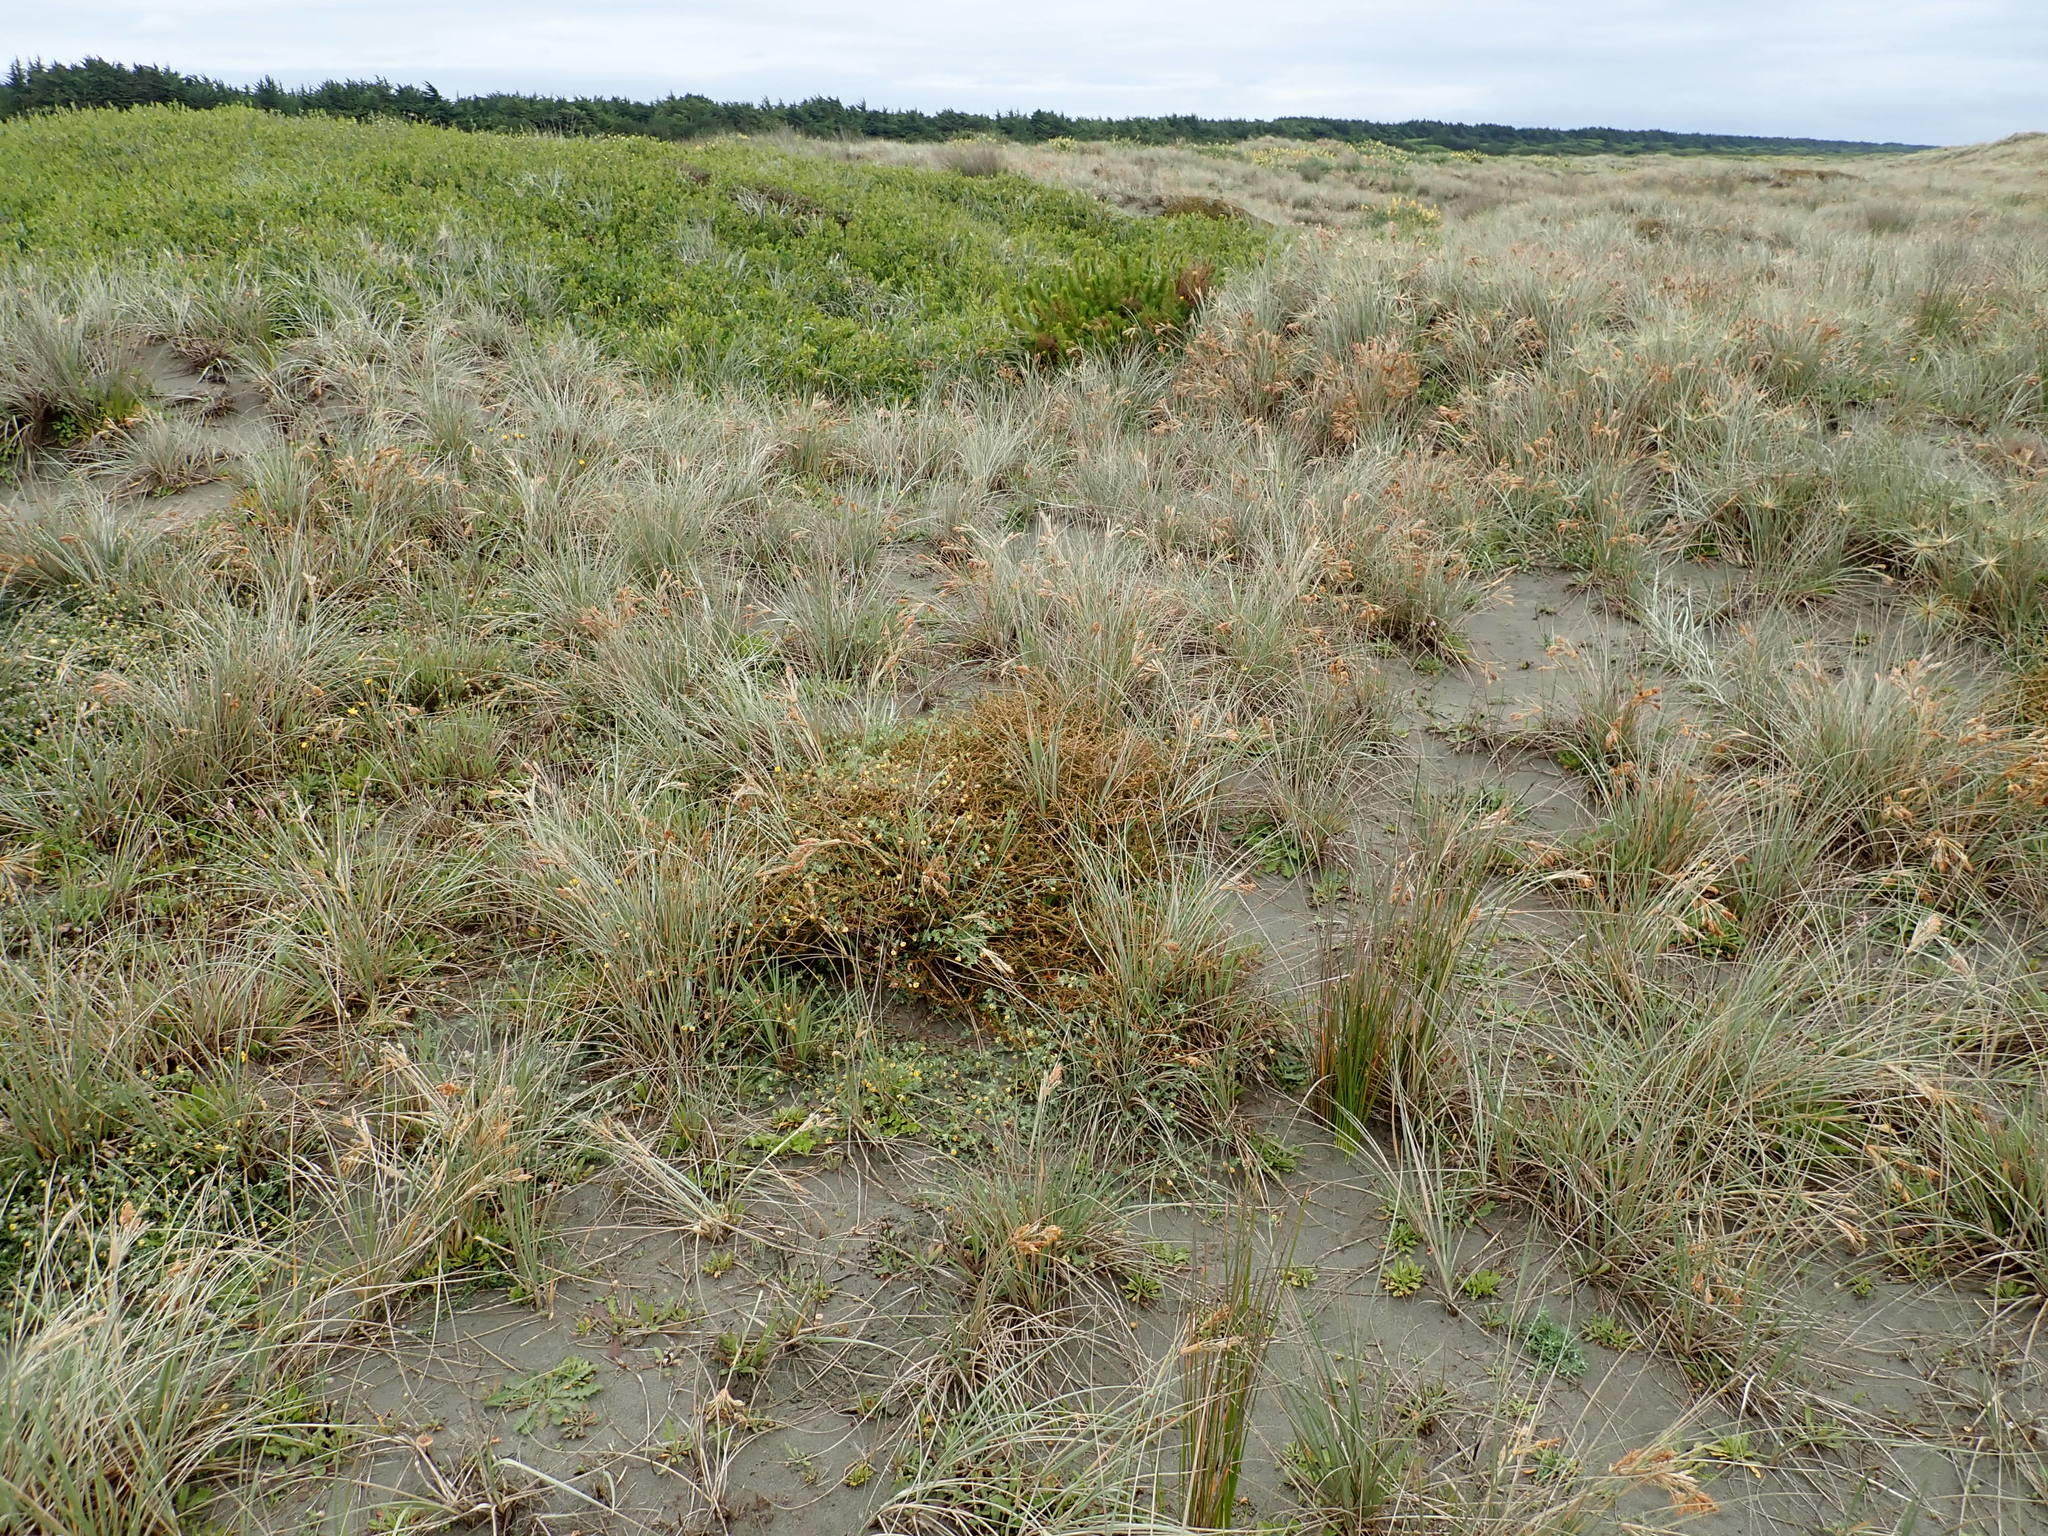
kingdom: Plantae
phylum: Tracheophyta
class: Magnoliopsida
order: Fabales
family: Fabaceae
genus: Lotus
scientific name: Lotus subbiflorus
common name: Hairy bird's-foot trefoil
